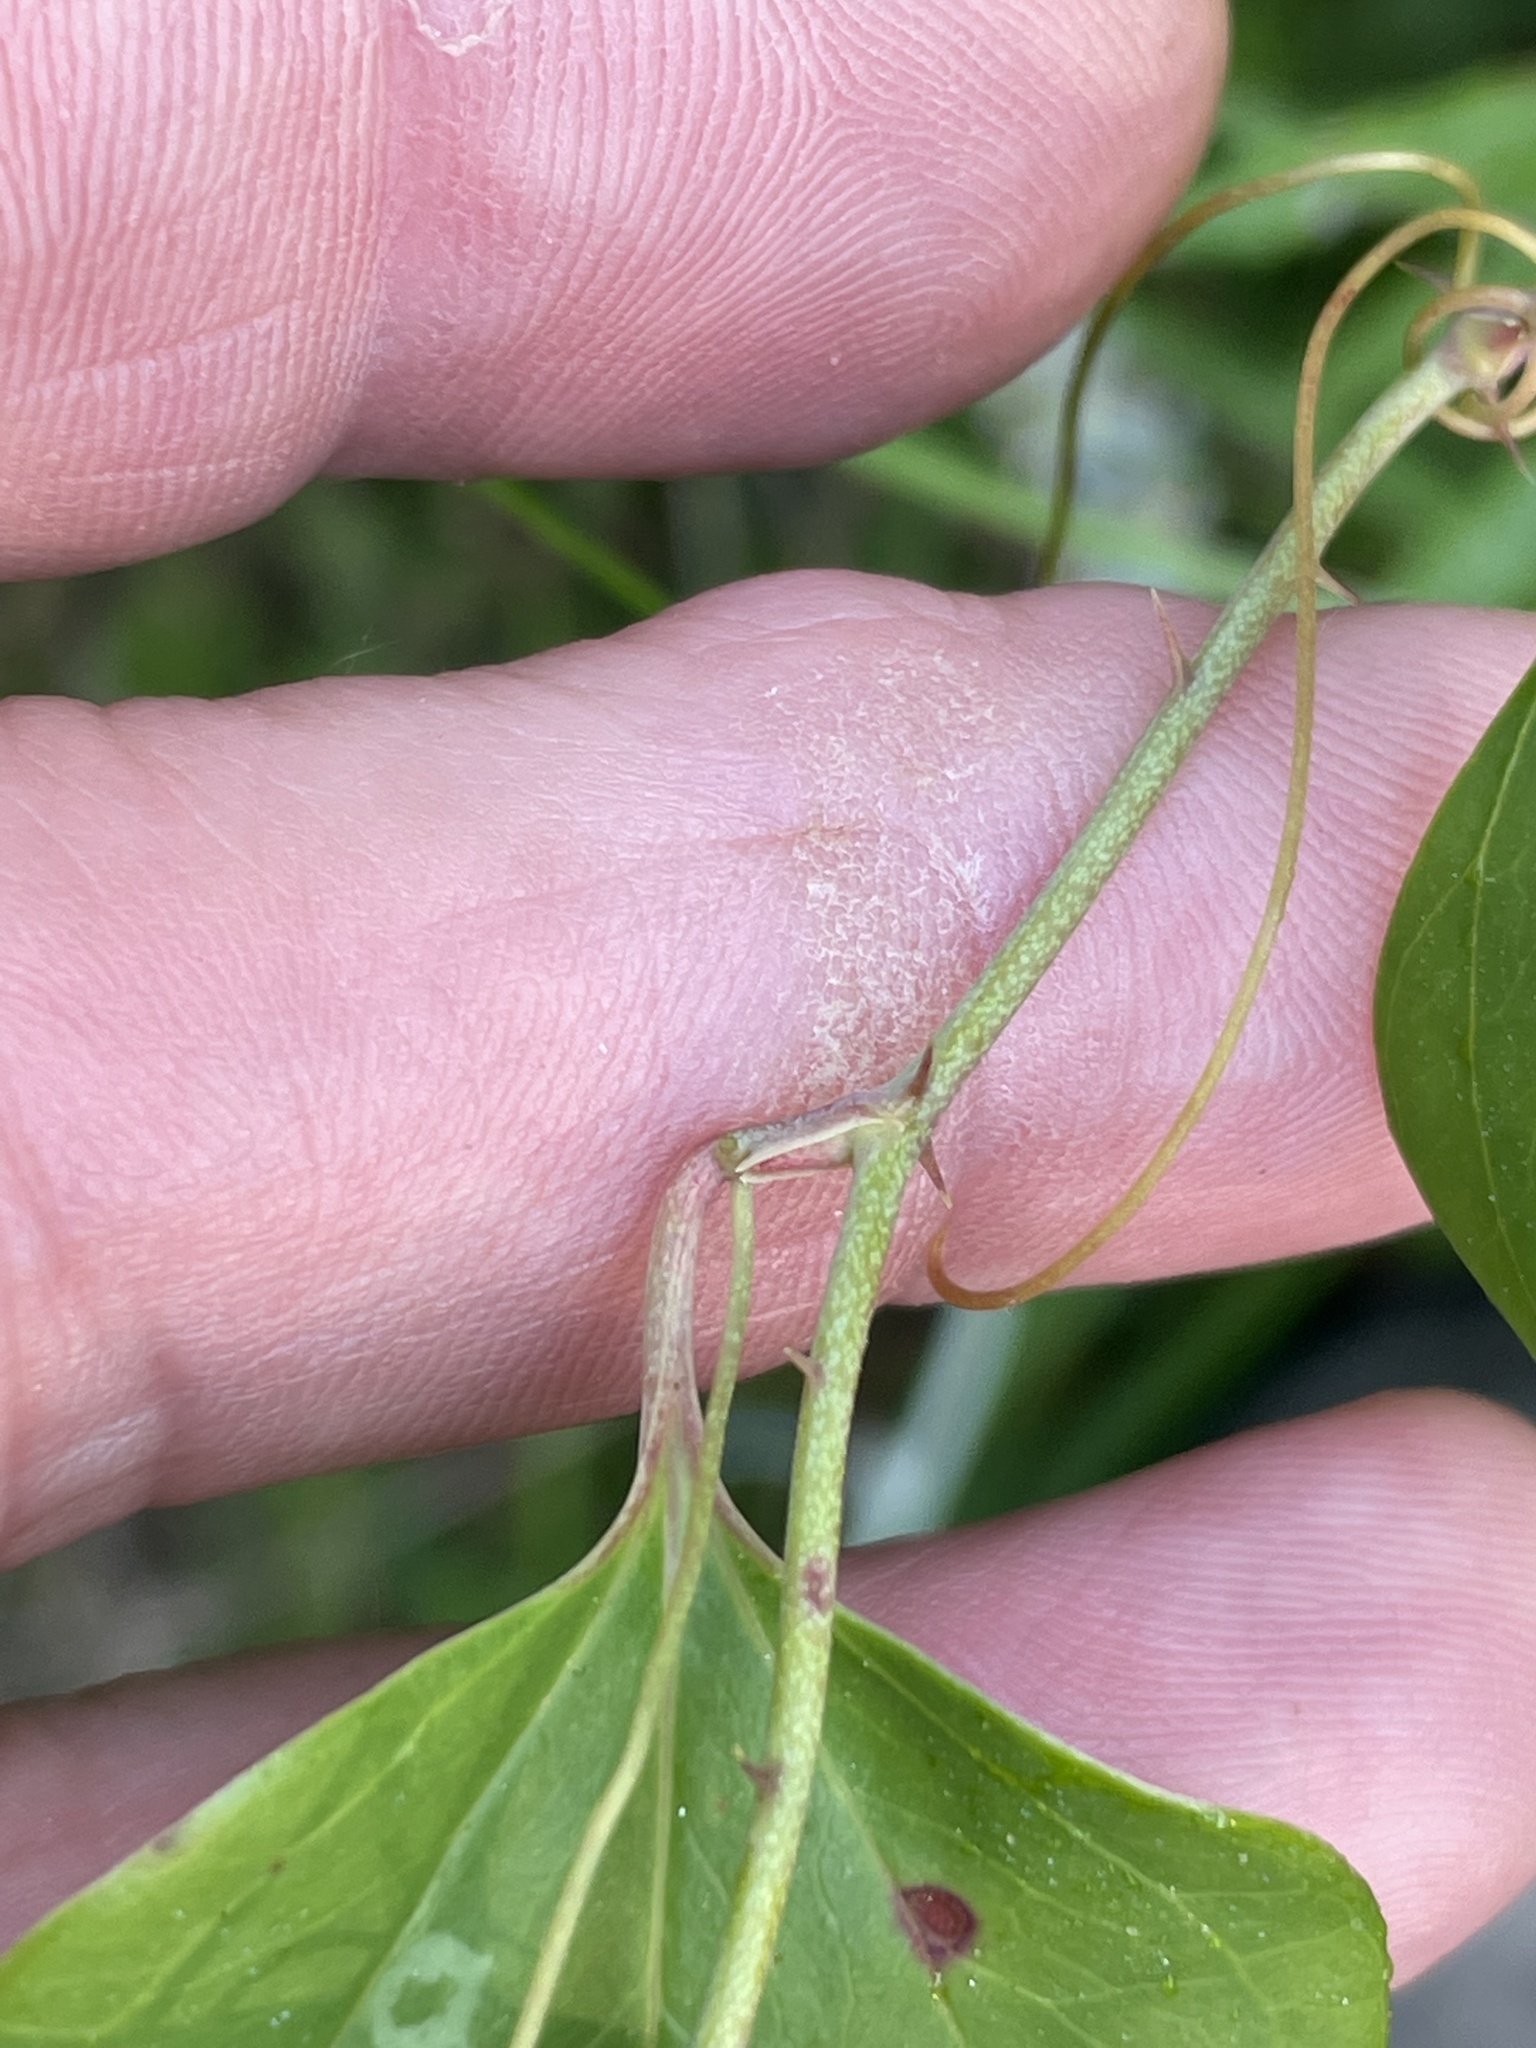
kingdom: Plantae
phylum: Tracheophyta
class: Liliopsida
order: Liliales
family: Smilacaceae
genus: Smilax
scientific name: Smilax glauca
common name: Cat greenbrier
